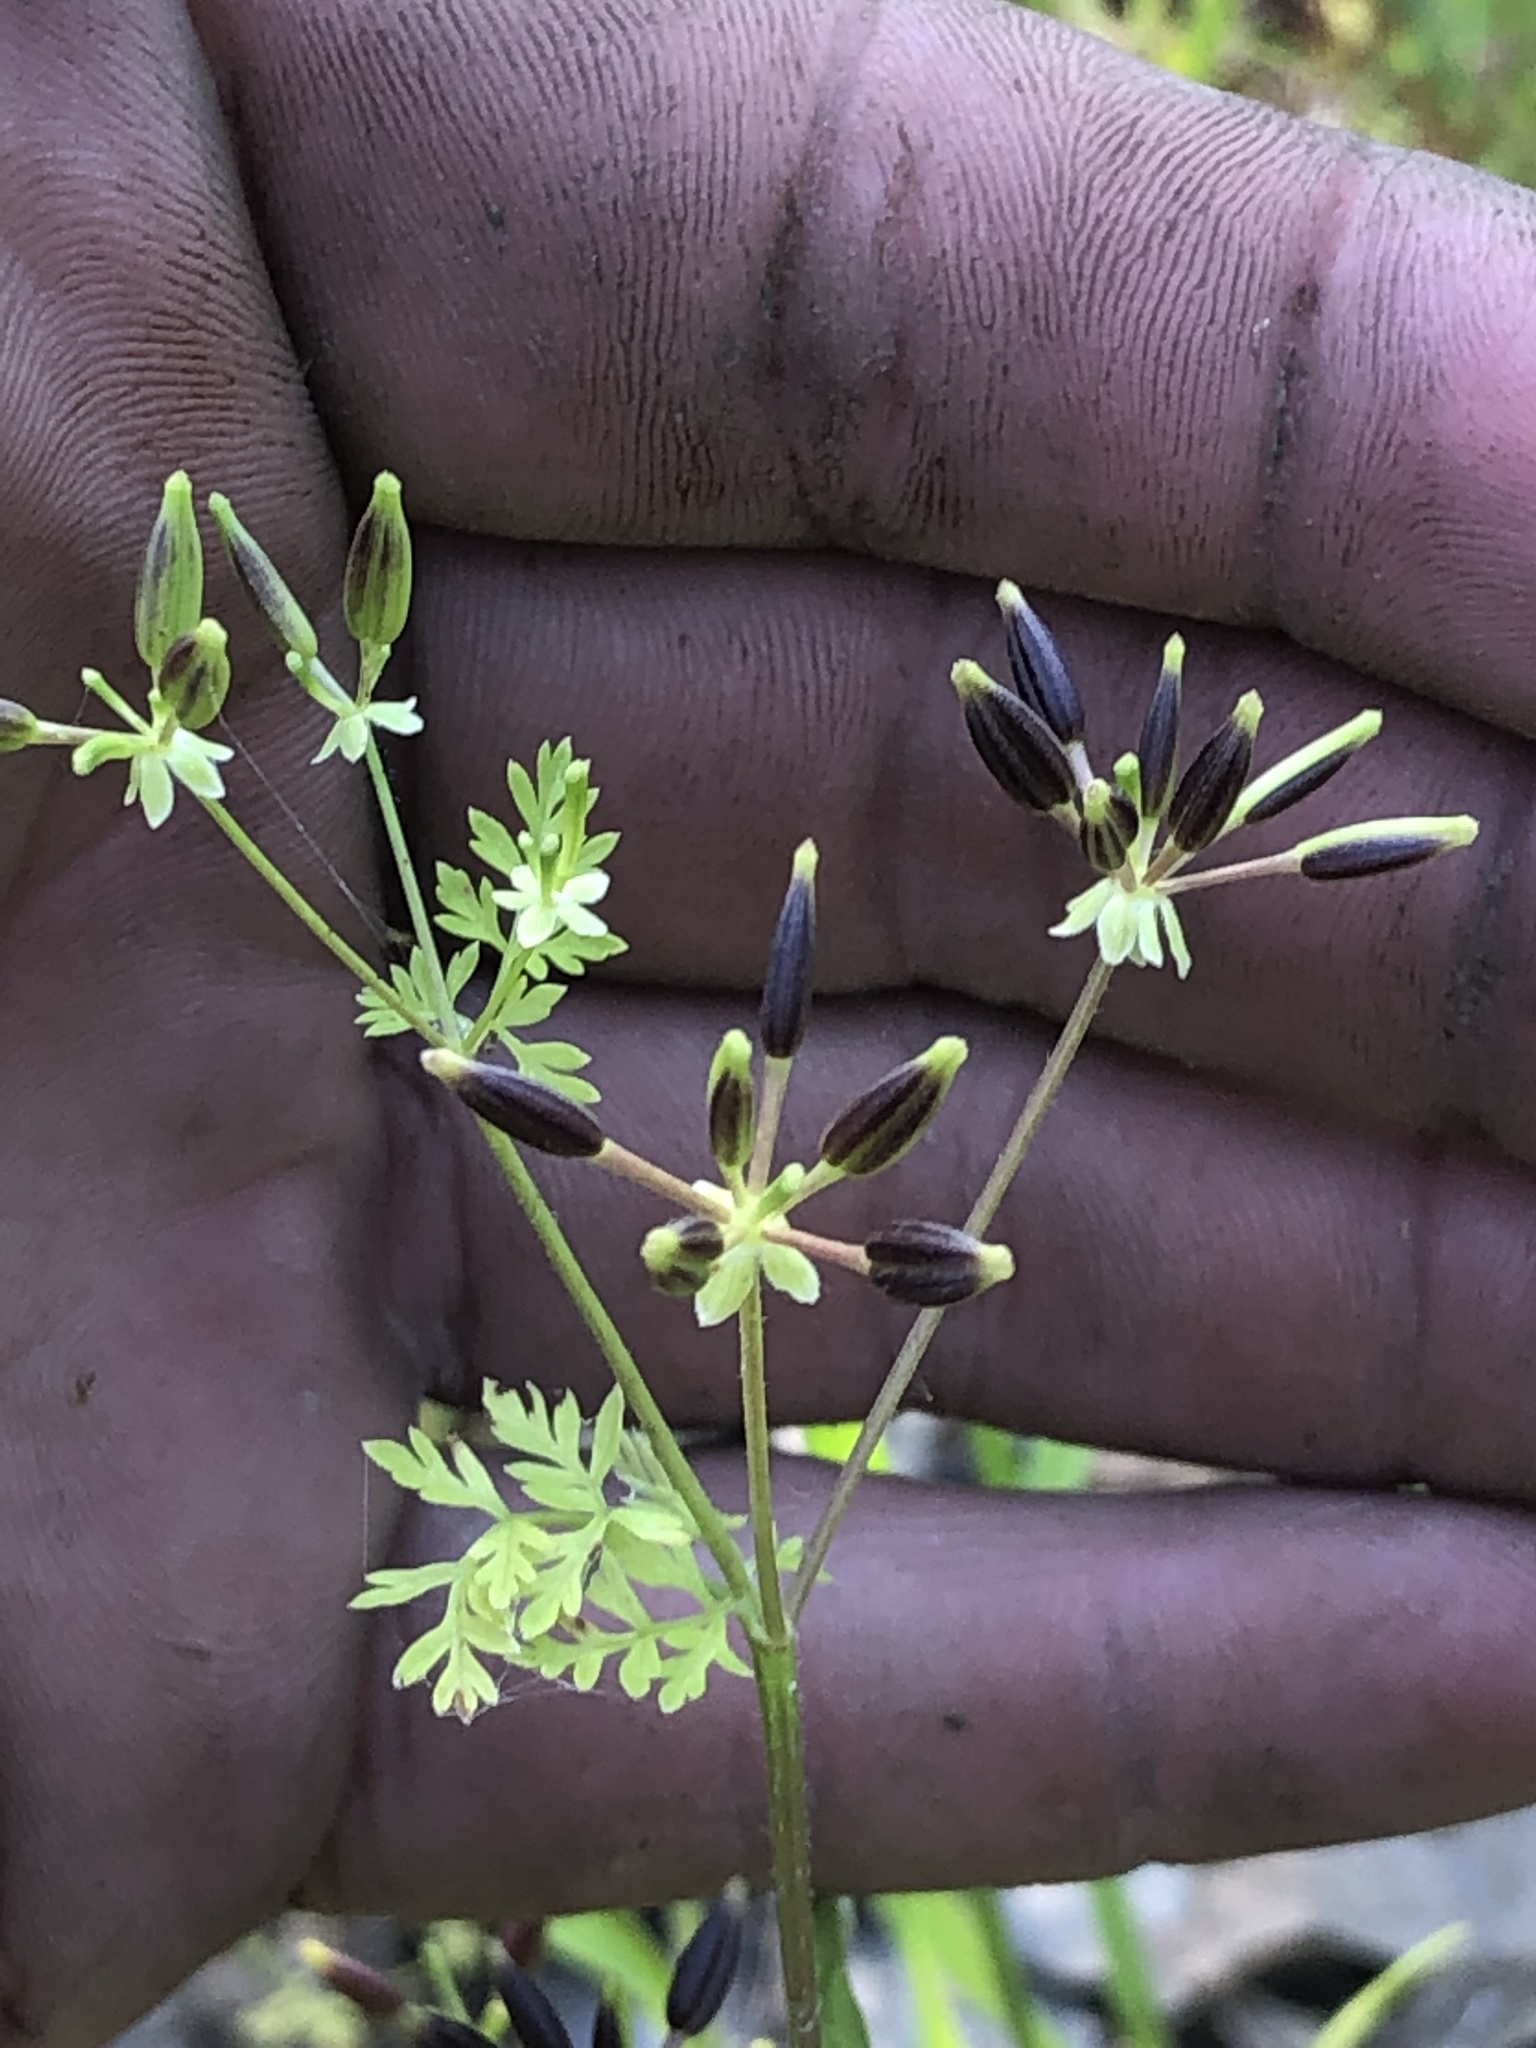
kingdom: Plantae
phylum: Tracheophyta
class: Magnoliopsida
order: Apiales
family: Apiaceae
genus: Chaerophyllum
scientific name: Chaerophyllum tainturieri
